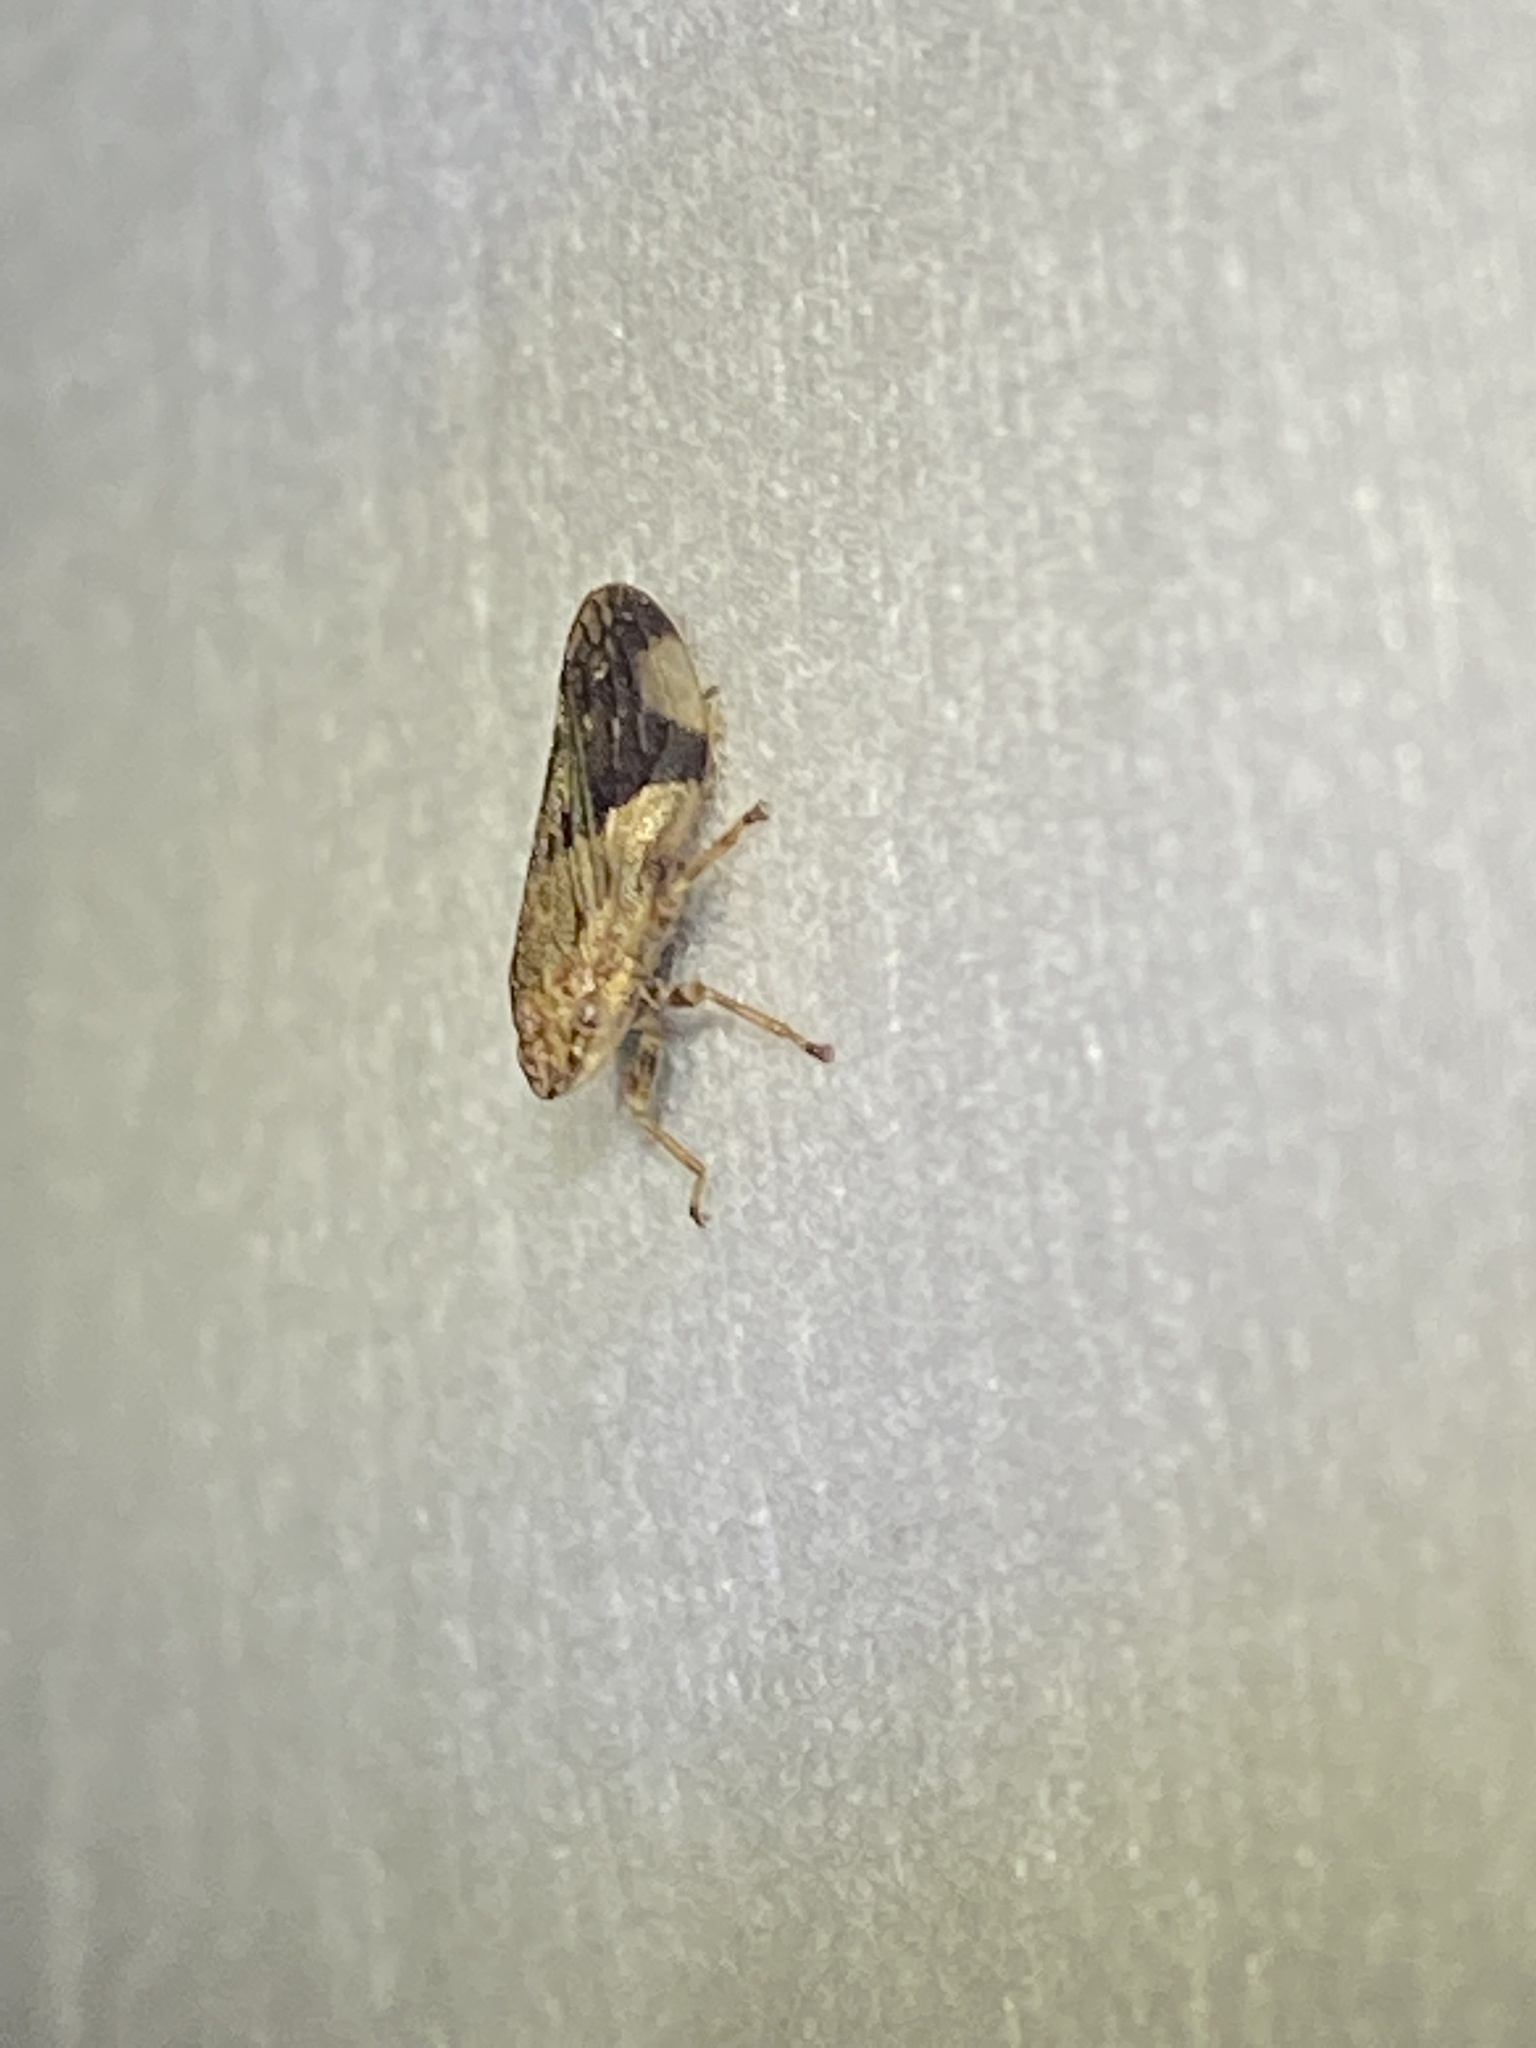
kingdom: Animalia
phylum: Arthropoda
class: Insecta
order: Hemiptera
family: Aphrophoridae
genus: Aphrophora
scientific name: Aphrophora quadrinotata
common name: Four-spotted spittlebug
